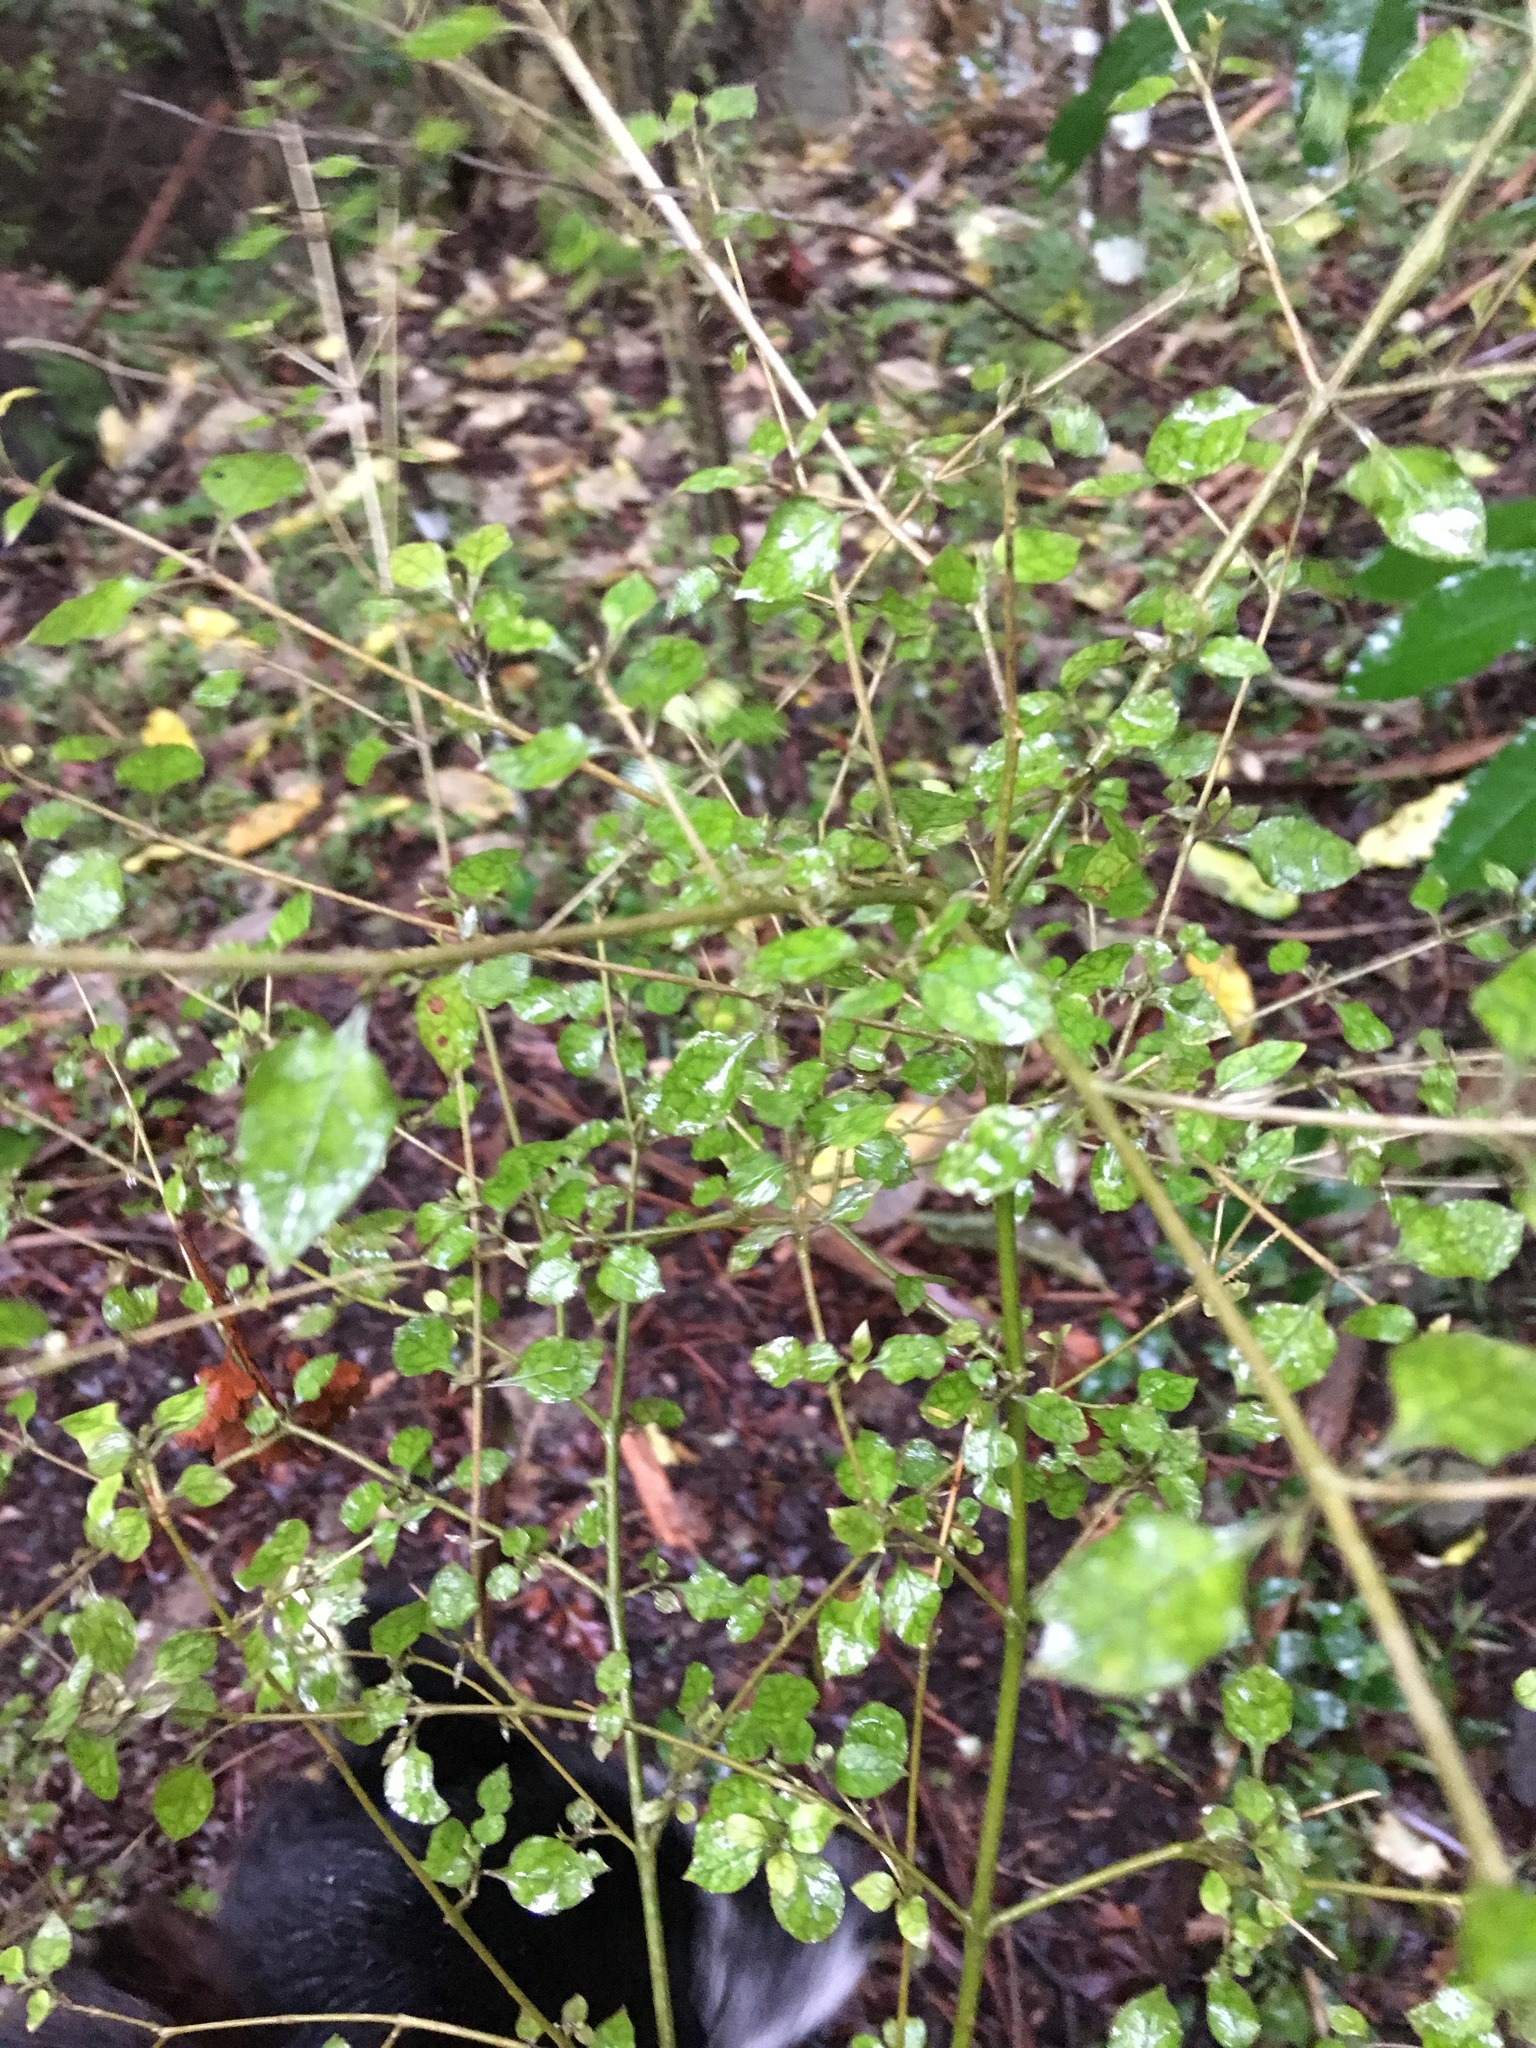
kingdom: Plantae
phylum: Tracheophyta
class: Magnoliopsida
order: Gentianales
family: Rubiaceae
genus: Coprosma
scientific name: Coprosma areolata
